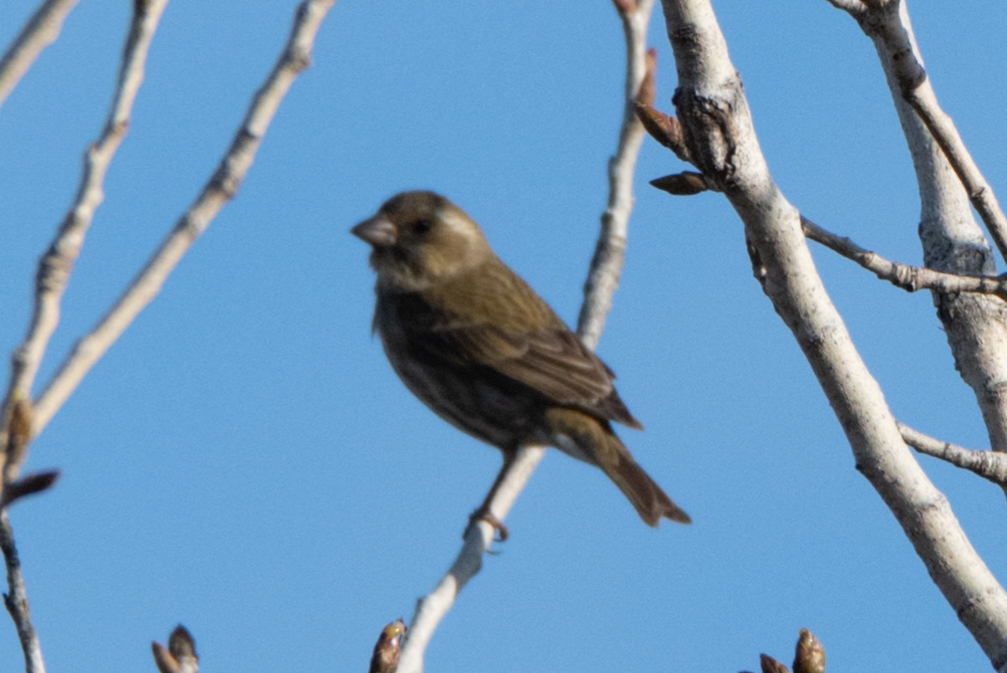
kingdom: Animalia
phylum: Chordata
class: Aves
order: Passeriformes
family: Fringillidae
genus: Haemorhous
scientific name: Haemorhous purpureus
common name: Purple finch
